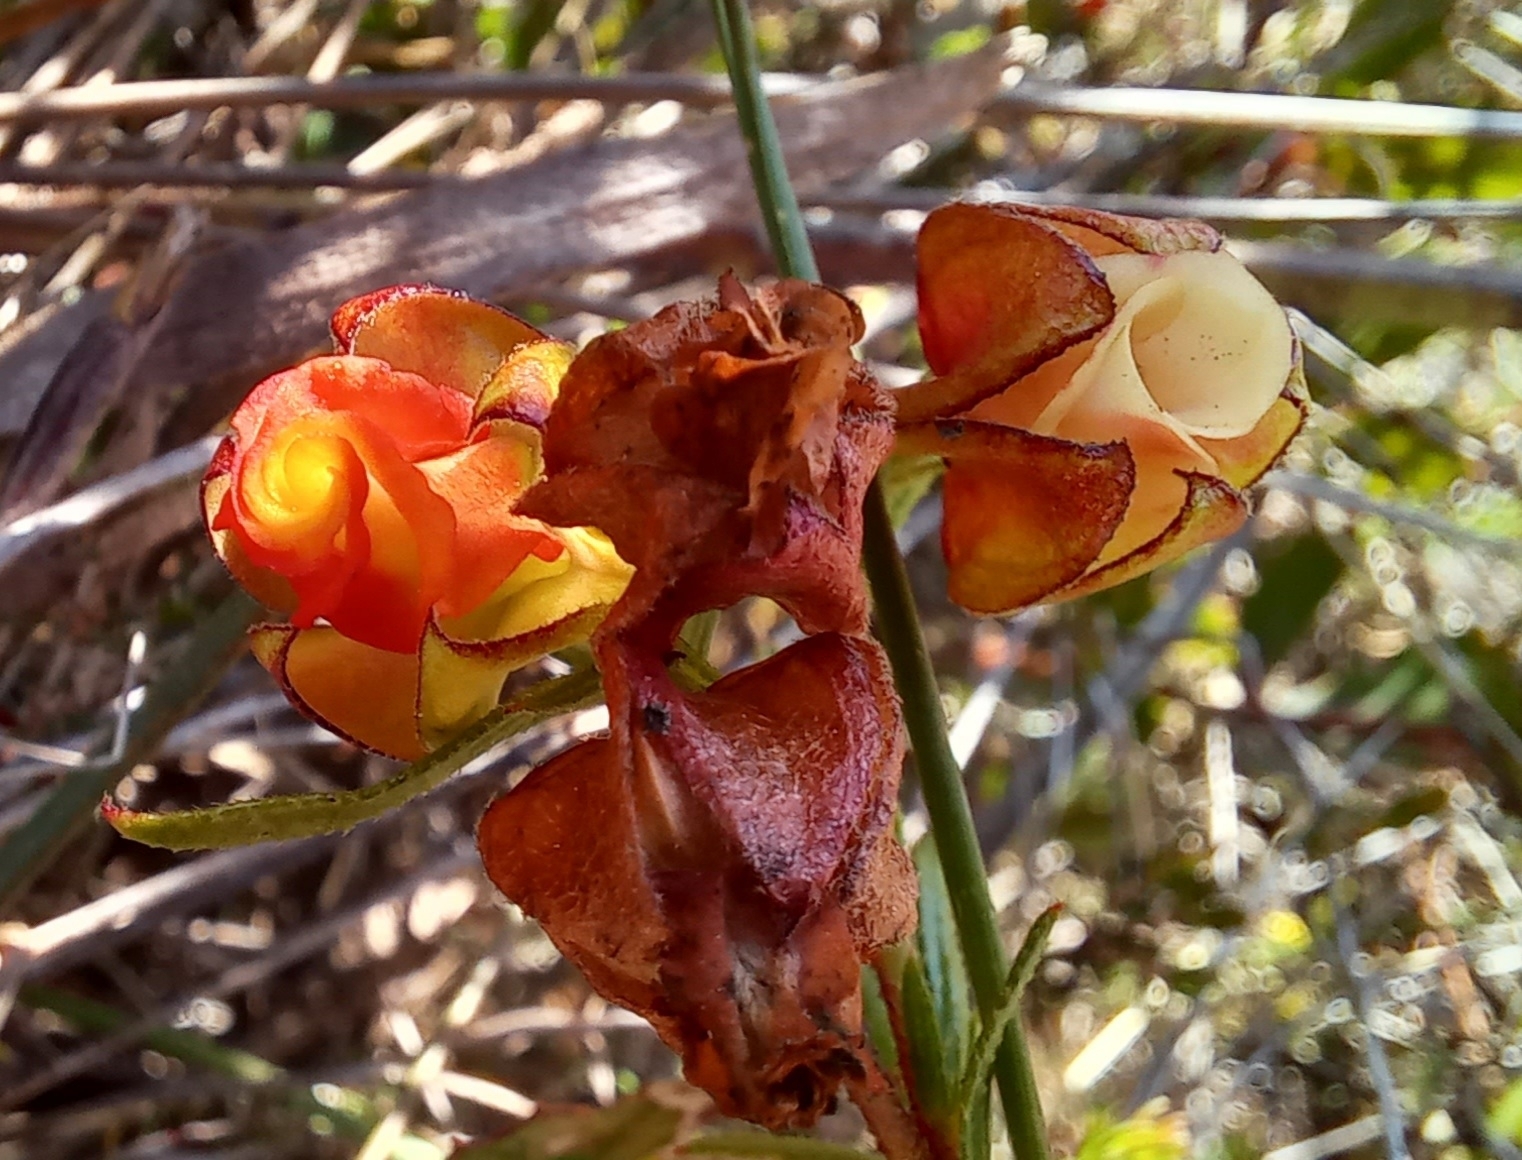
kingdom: Plantae
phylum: Tracheophyta
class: Magnoliopsida
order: Malvales
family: Malvaceae
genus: Hermannia
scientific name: Hermannia angularis
